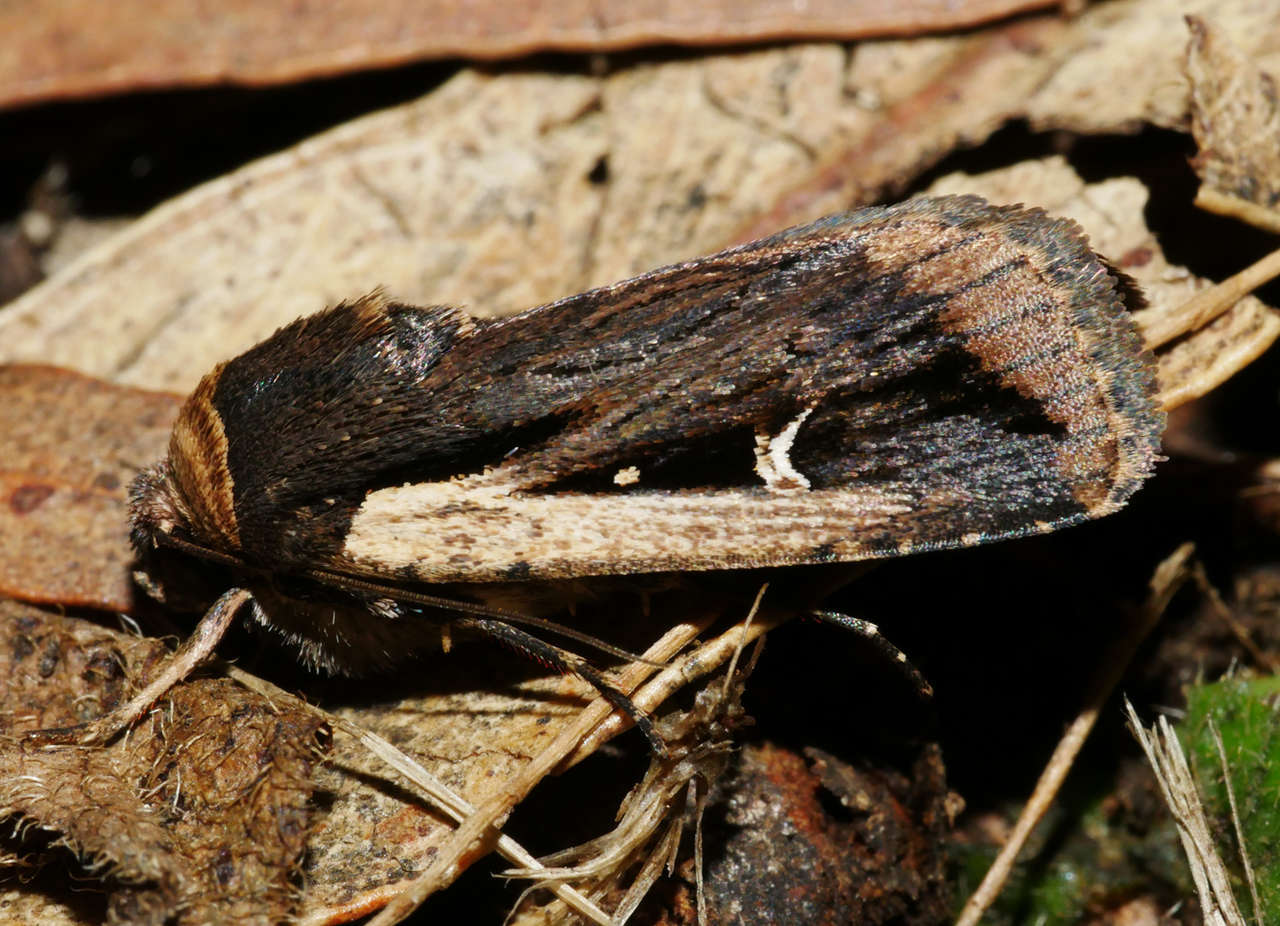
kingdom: Animalia
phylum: Arthropoda
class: Insecta
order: Lepidoptera
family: Noctuidae
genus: Proteuxoa
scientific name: Proteuxoa tortisigna
